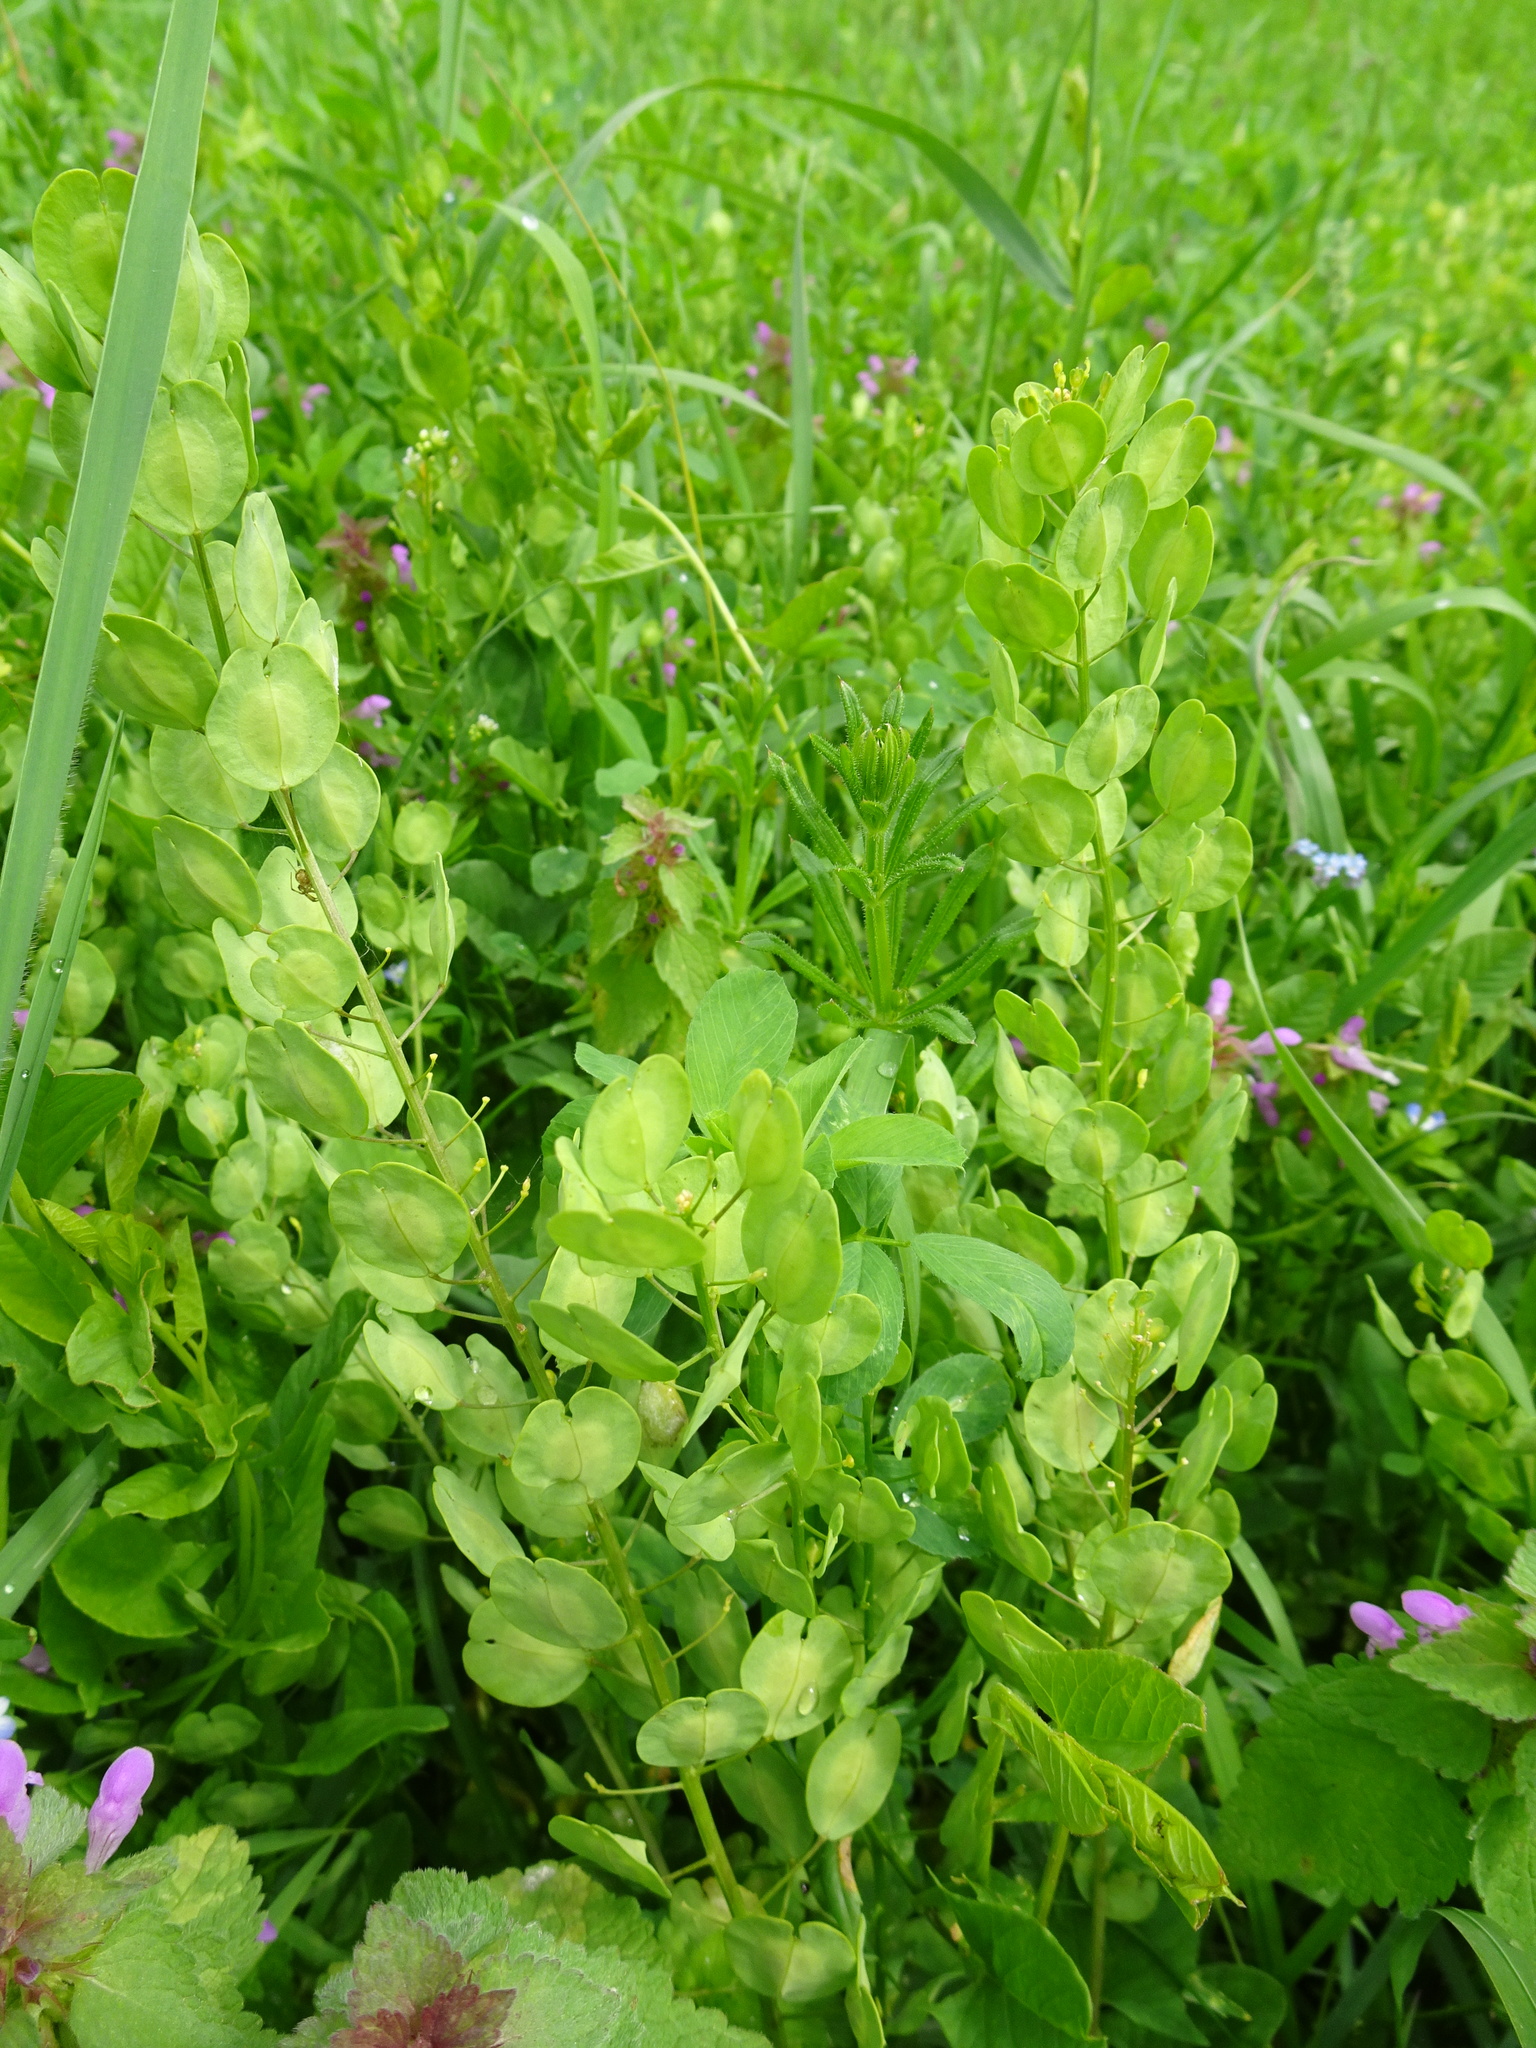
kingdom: Plantae
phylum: Tracheophyta
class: Magnoliopsida
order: Brassicales
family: Brassicaceae
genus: Thlaspi
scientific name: Thlaspi arvense
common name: Field pennycress
